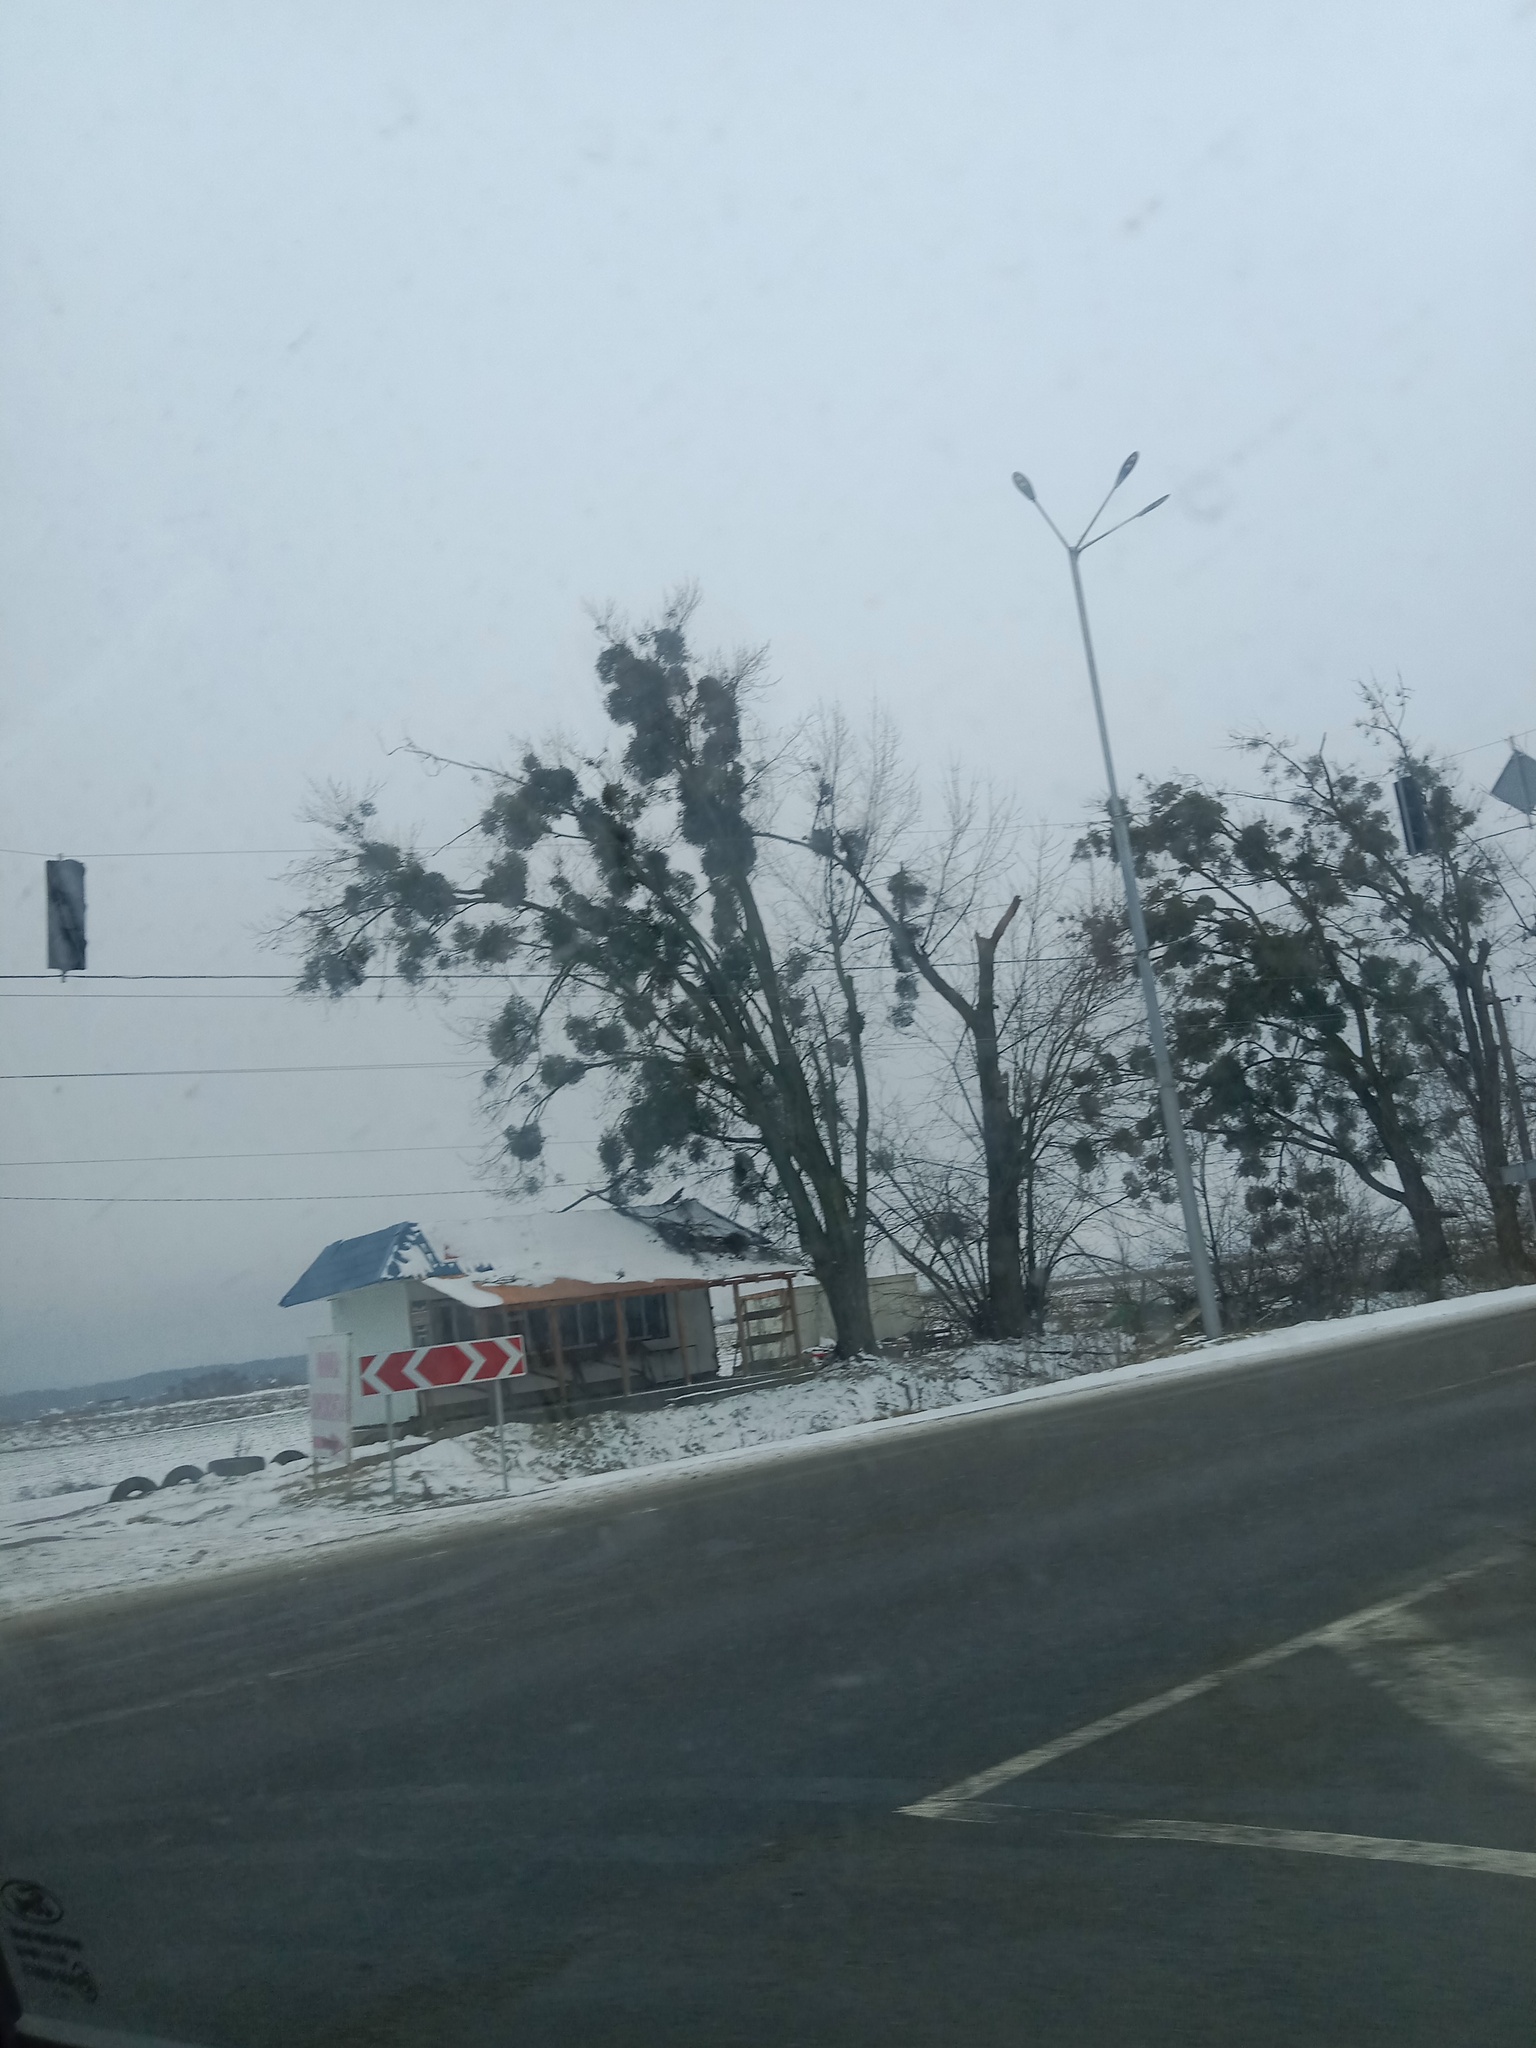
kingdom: Plantae
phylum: Tracheophyta
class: Magnoliopsida
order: Santalales
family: Viscaceae
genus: Viscum
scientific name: Viscum album
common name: Mistletoe
